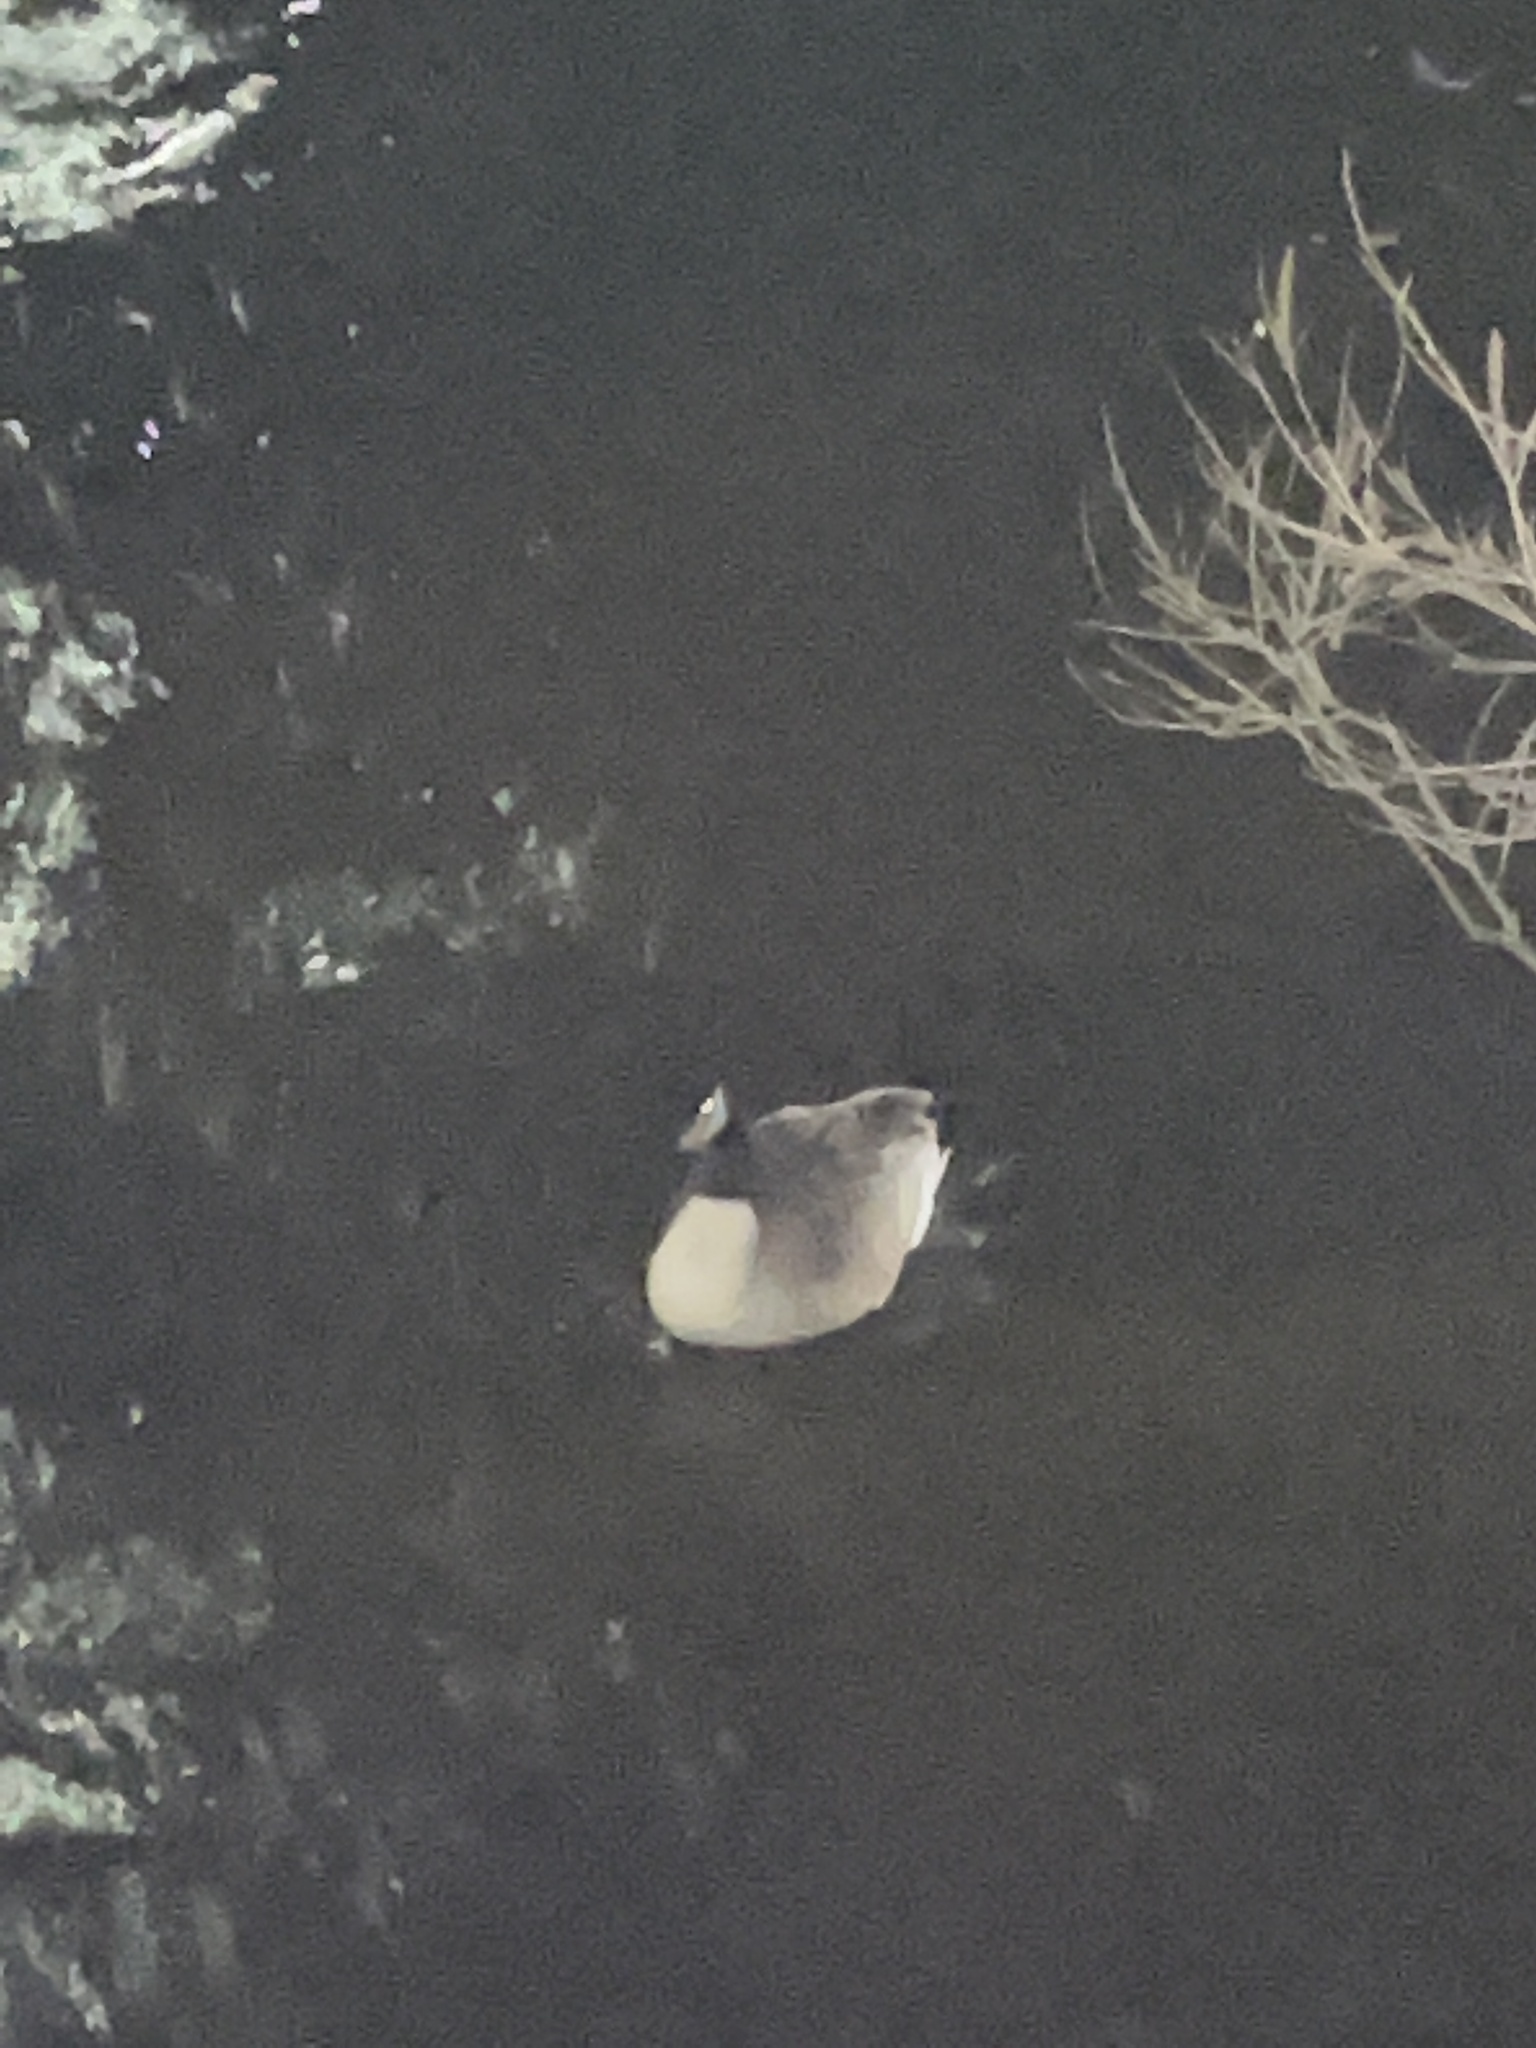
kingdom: Animalia
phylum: Chordata
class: Aves
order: Anseriformes
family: Anatidae
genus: Branta
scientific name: Branta canadensis
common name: Canada goose
